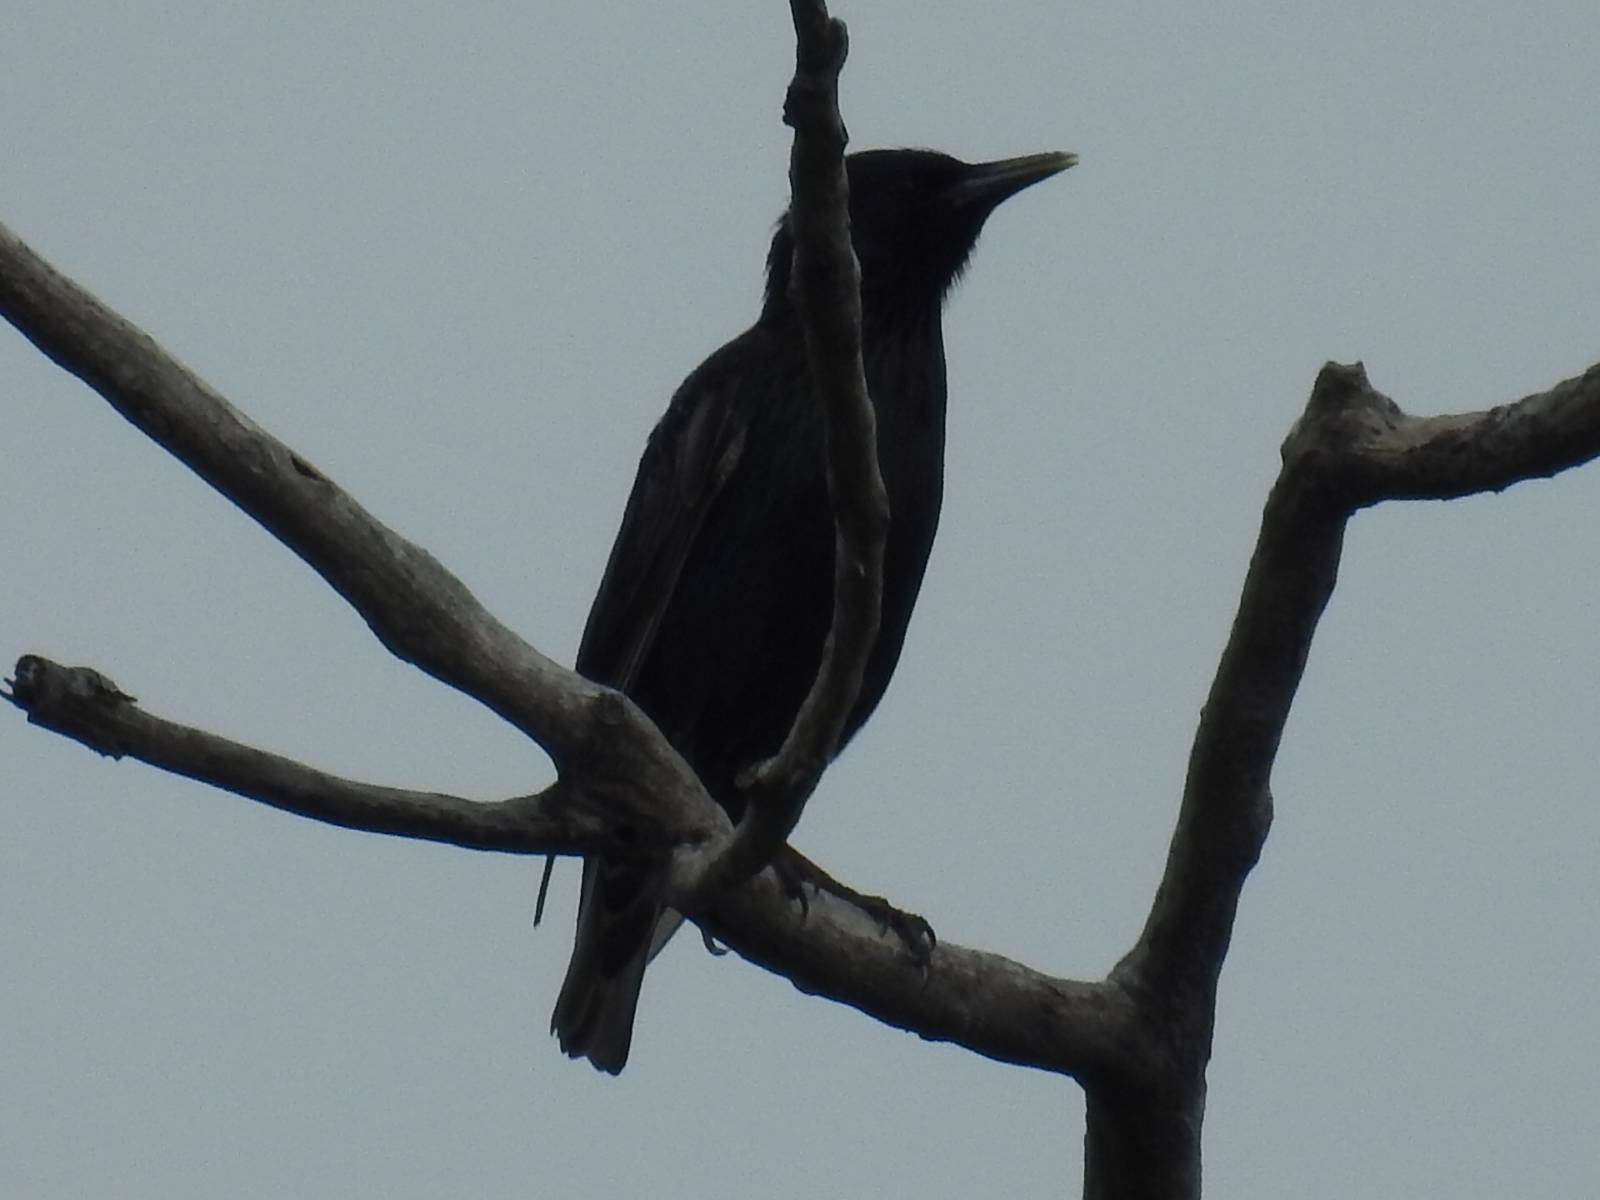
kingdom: Animalia
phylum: Chordata
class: Aves
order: Passeriformes
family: Sturnidae
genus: Sturnus
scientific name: Sturnus vulgaris
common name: Common starling
